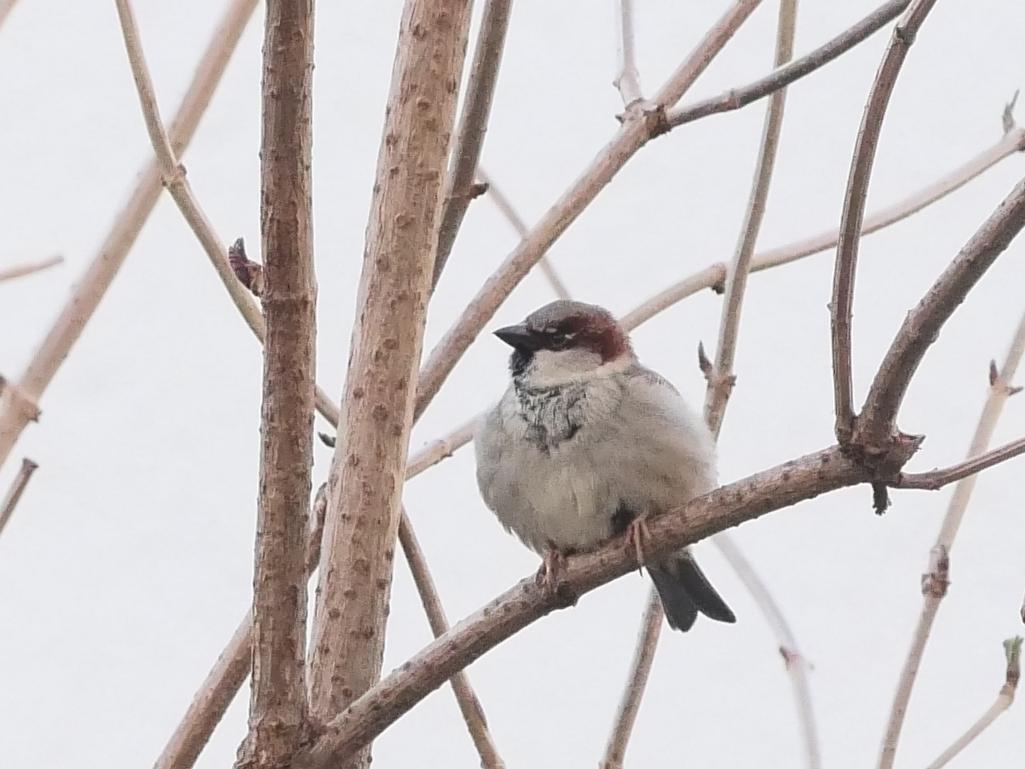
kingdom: Animalia
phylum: Chordata
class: Aves
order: Passeriformes
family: Passeridae
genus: Passer
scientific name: Passer domesticus
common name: House sparrow
